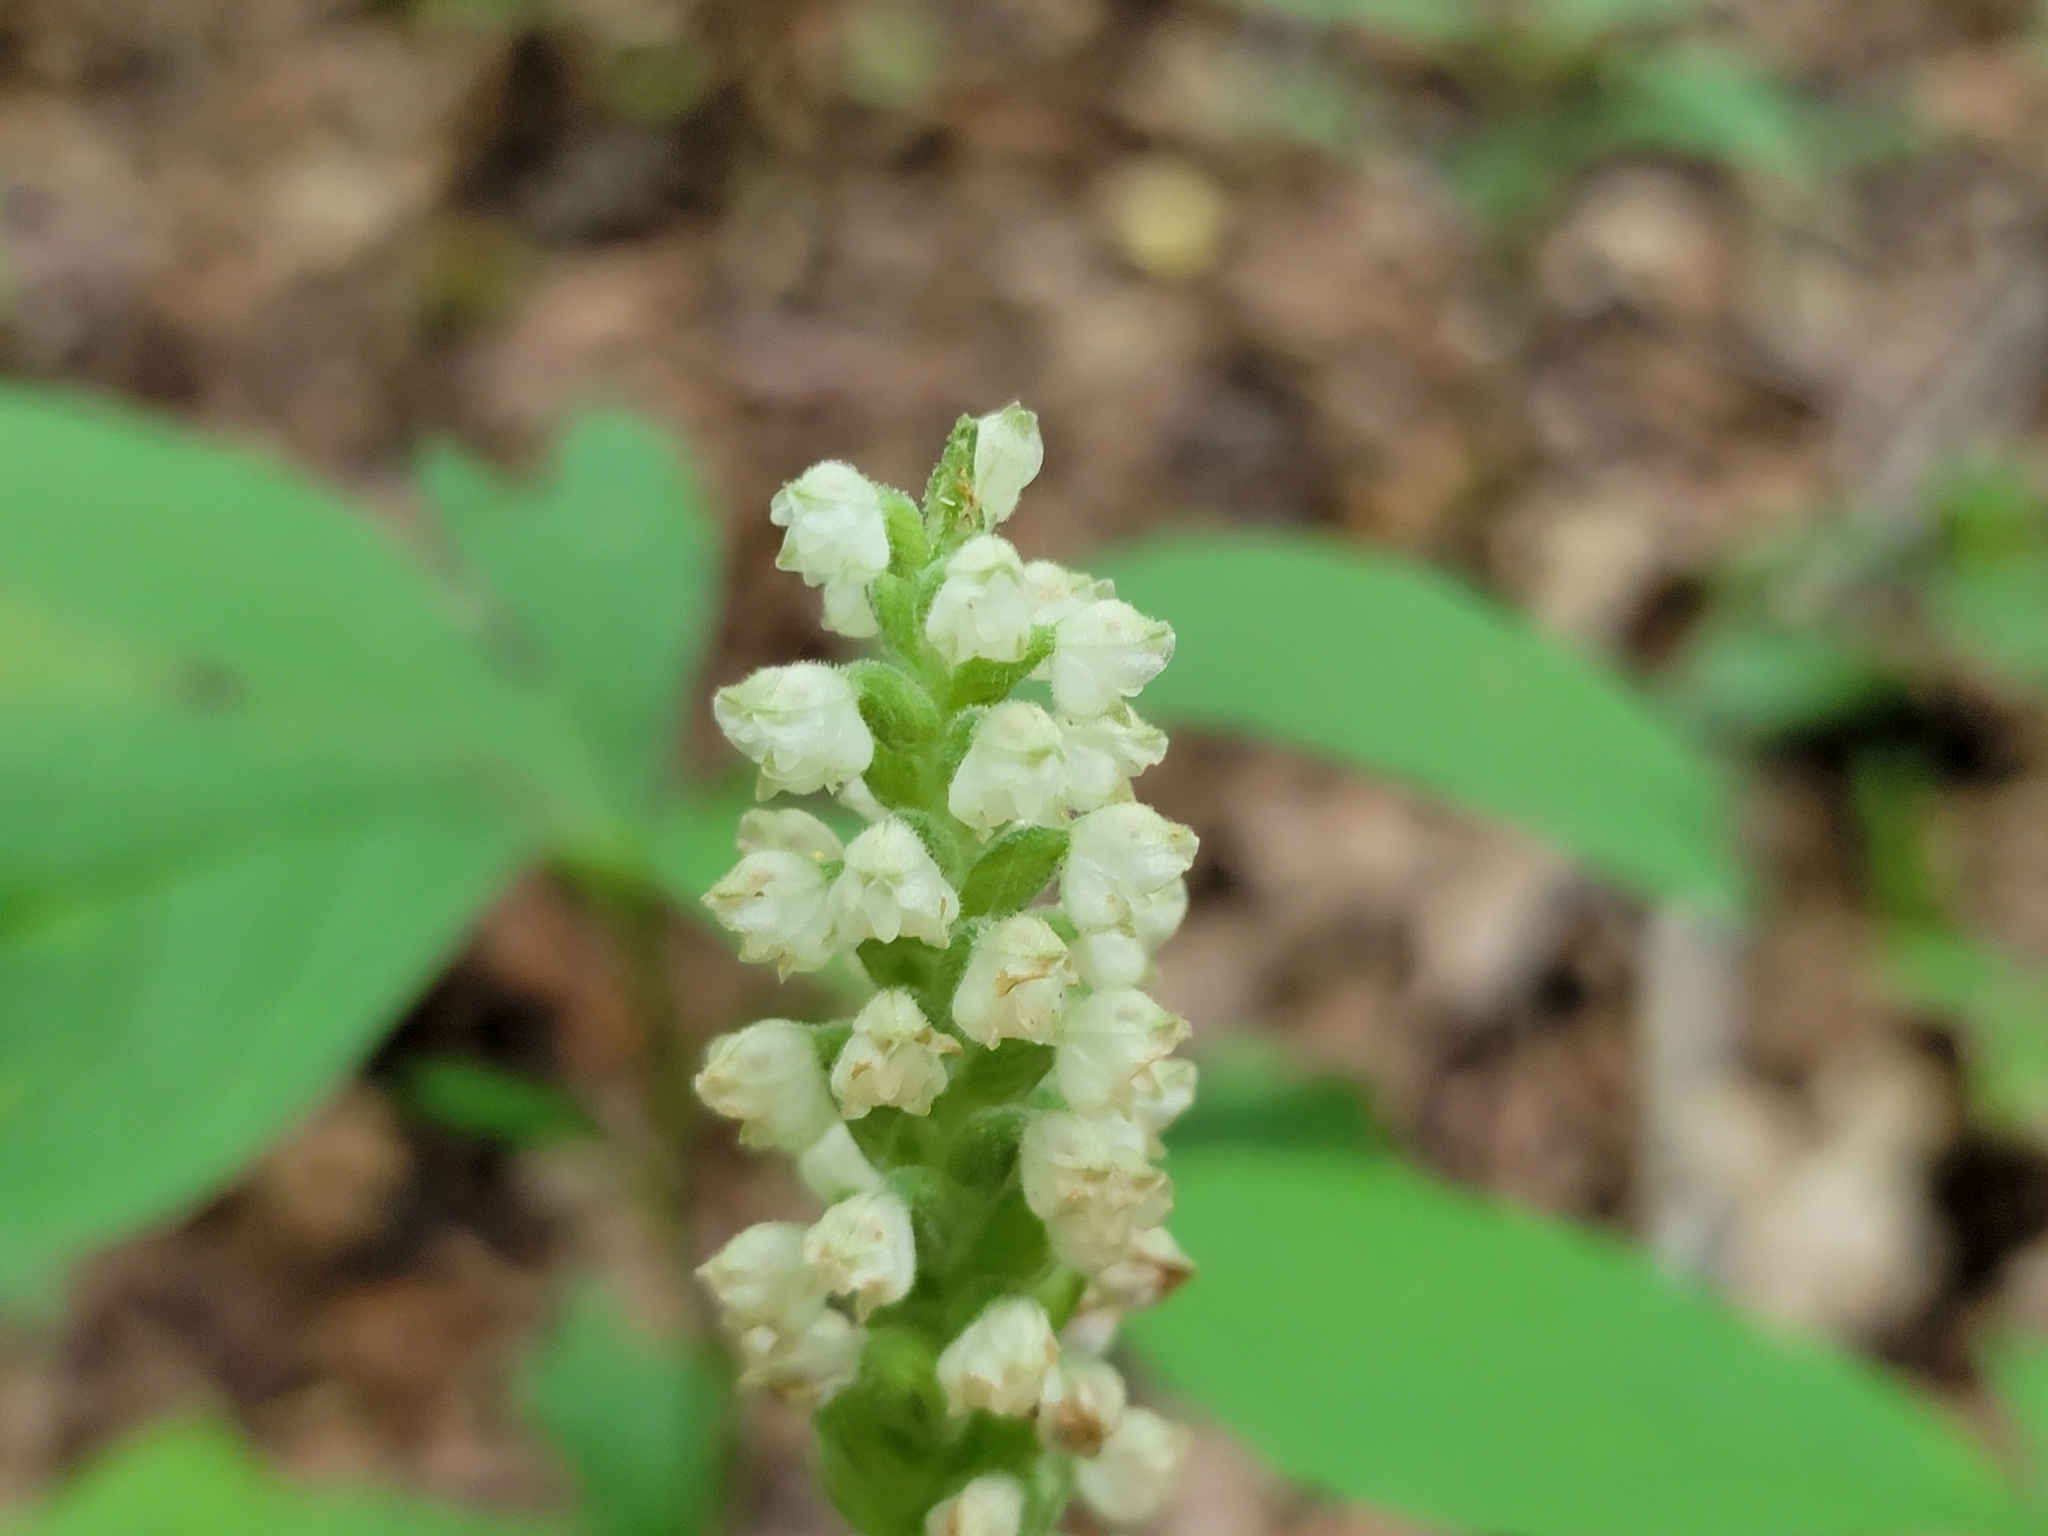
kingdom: Plantae
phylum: Tracheophyta
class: Liliopsida
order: Asparagales
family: Orchidaceae
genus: Goodyera
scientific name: Goodyera pubescens
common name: Downy rattlesnake-plantain
